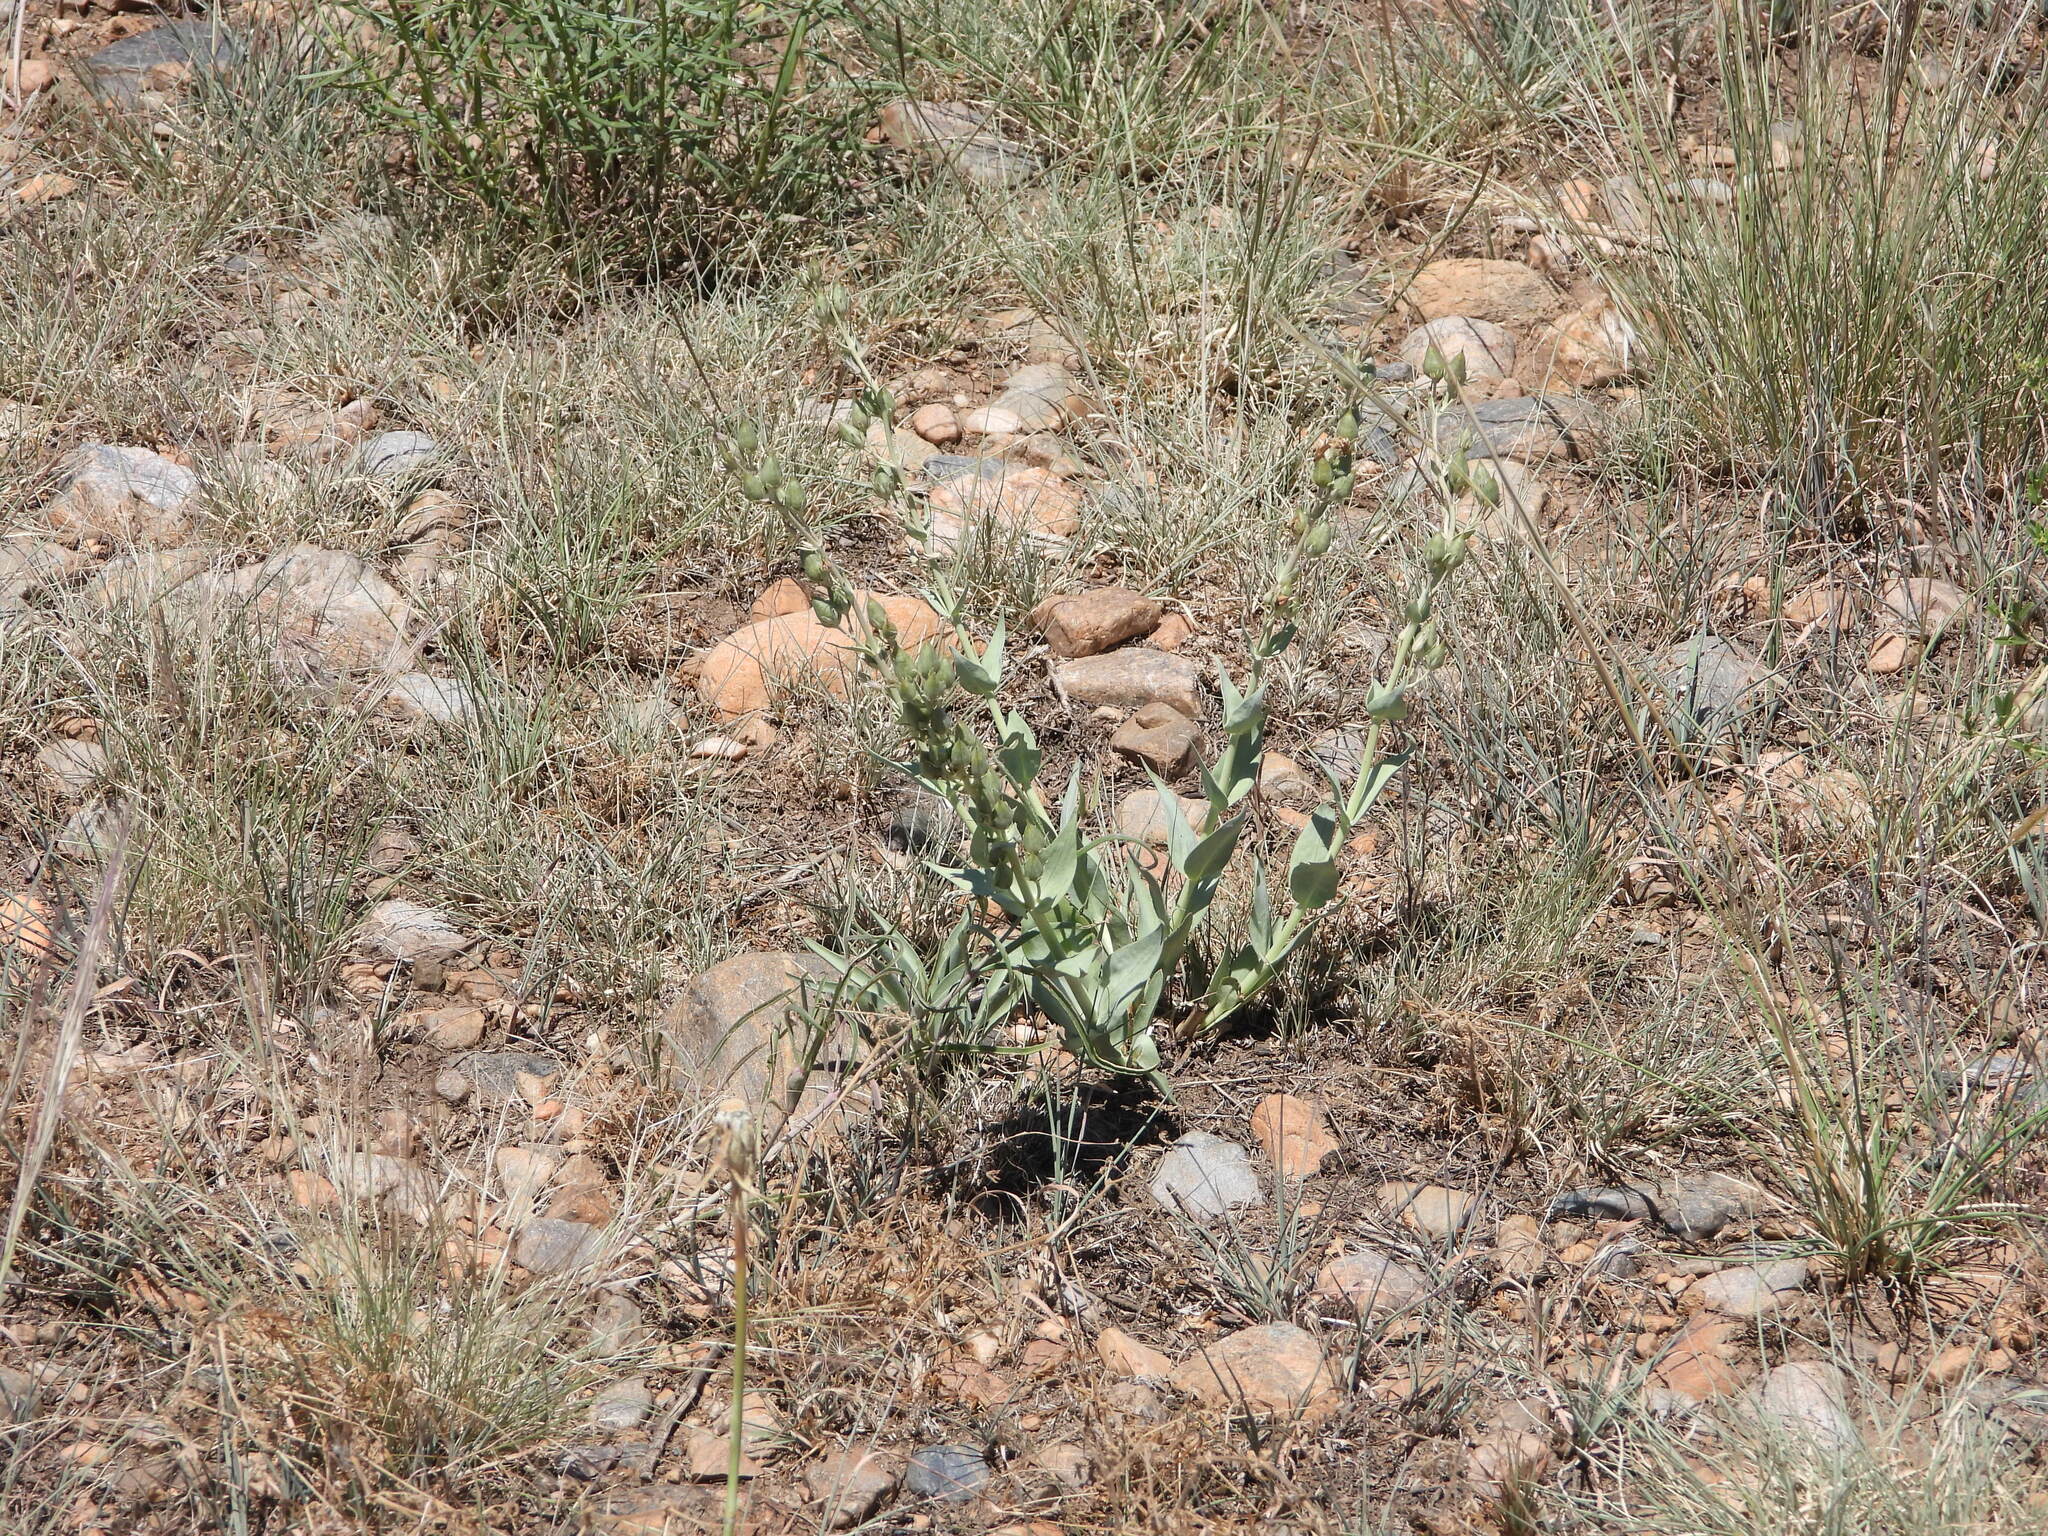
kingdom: Plantae
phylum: Tracheophyta
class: Magnoliopsida
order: Lamiales
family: Plantaginaceae
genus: Penstemon
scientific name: Penstemon secundiflorus
